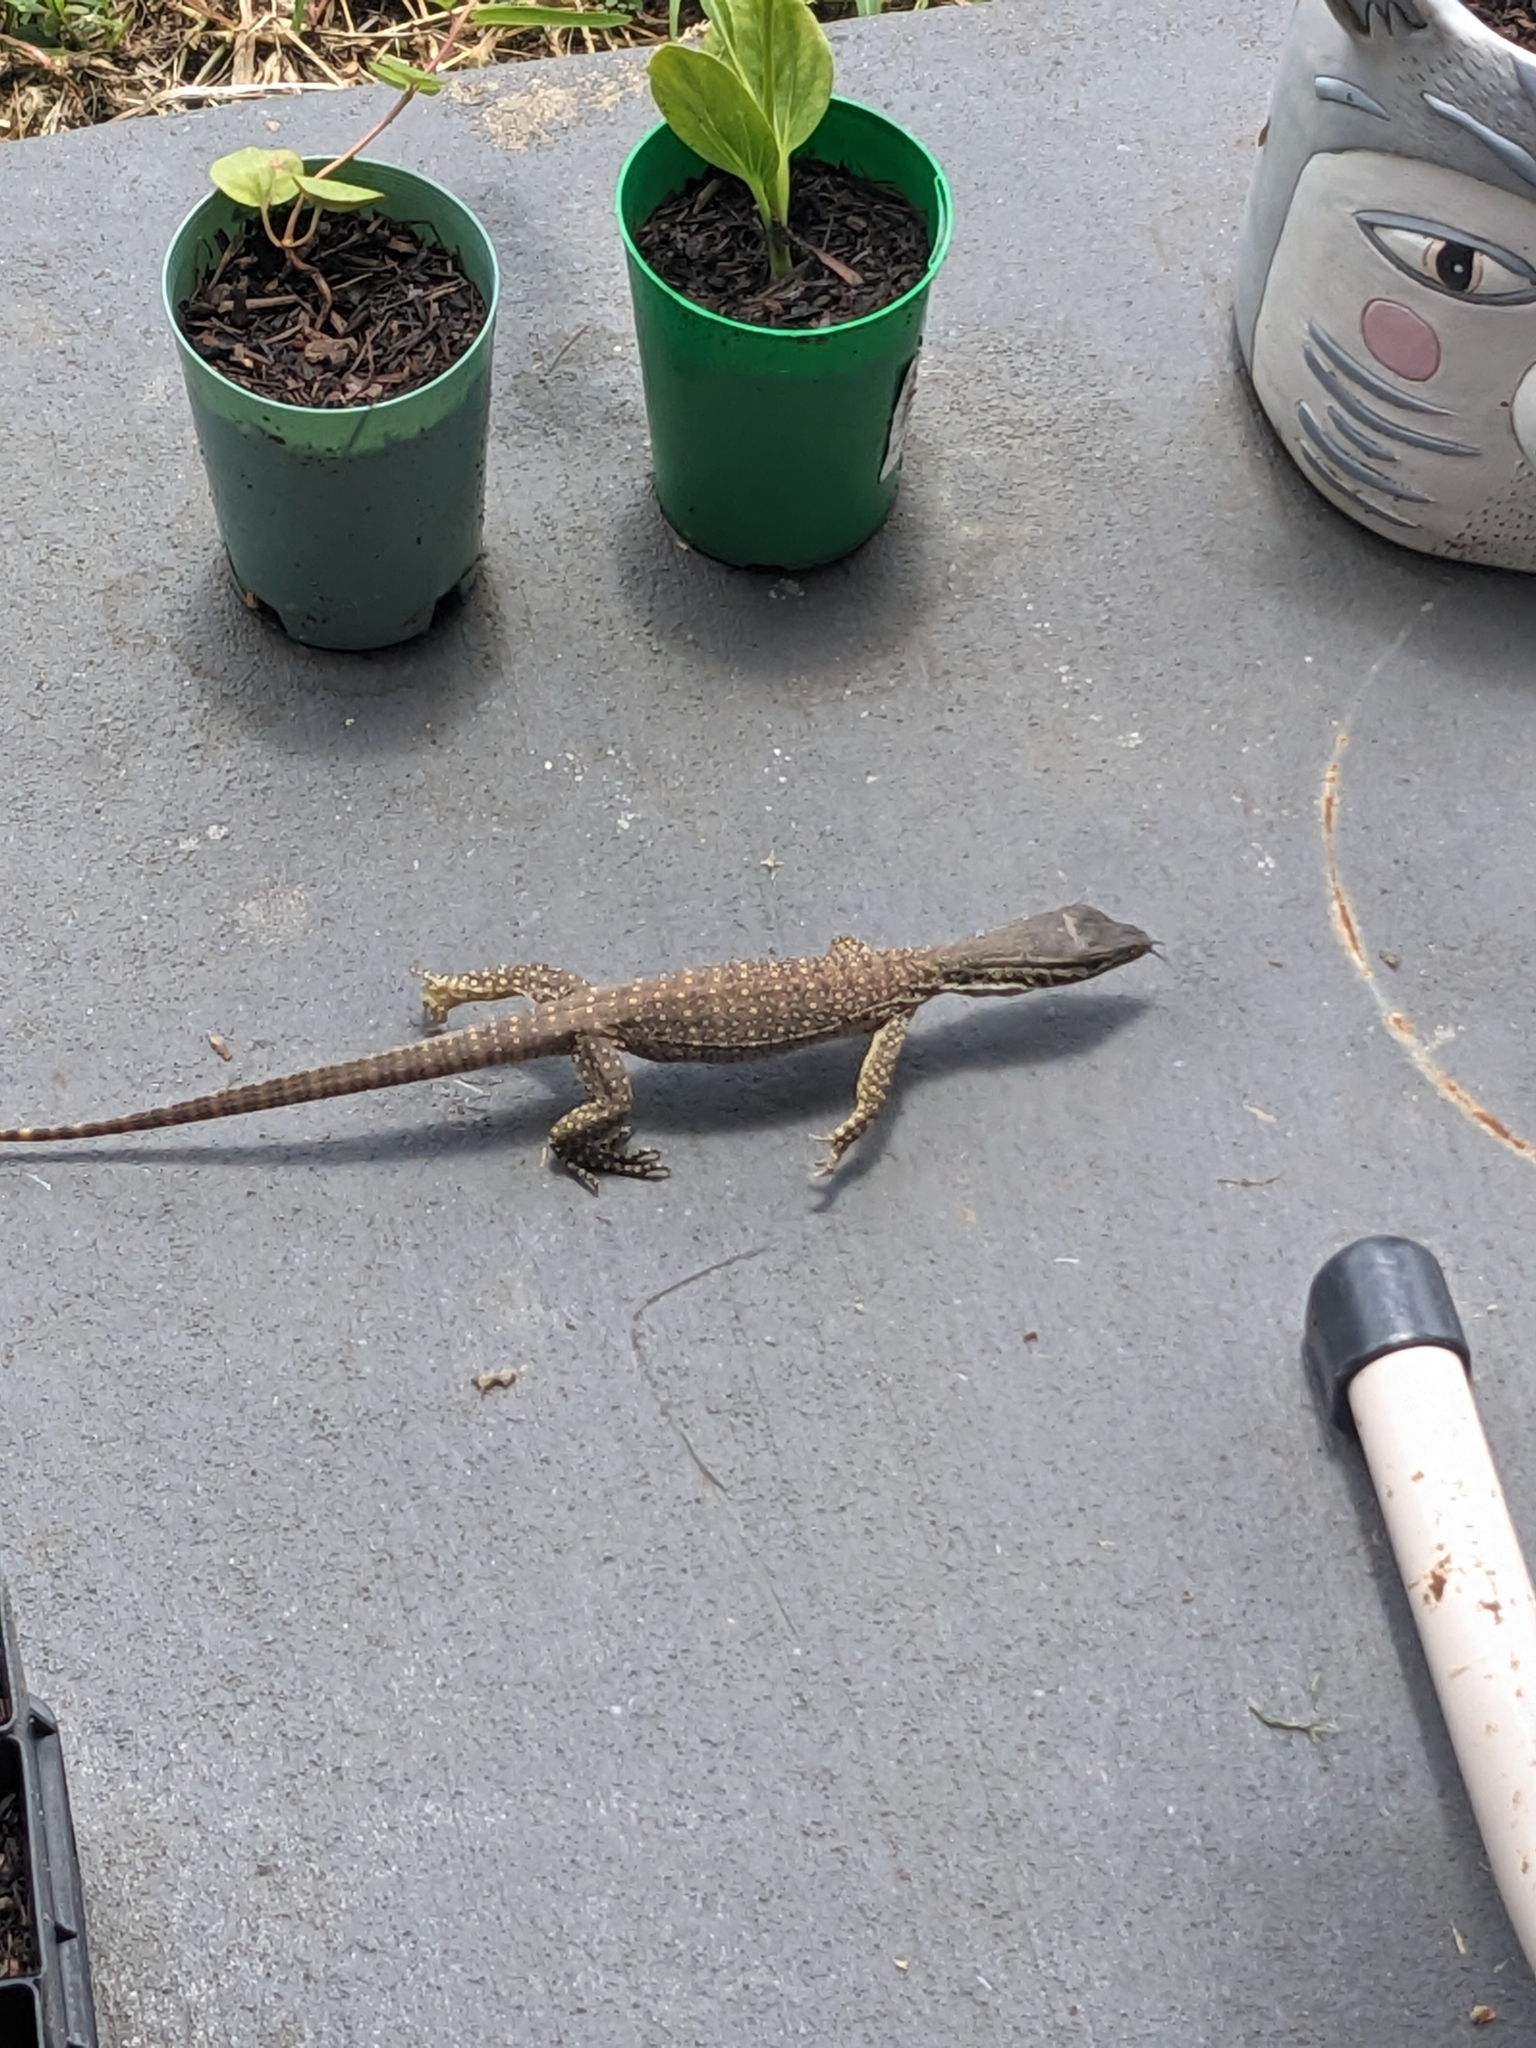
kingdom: Animalia
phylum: Chordata
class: Squamata
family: Varanidae
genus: Varanus
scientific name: Varanus panoptes
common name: Yellow-spotted monitor
